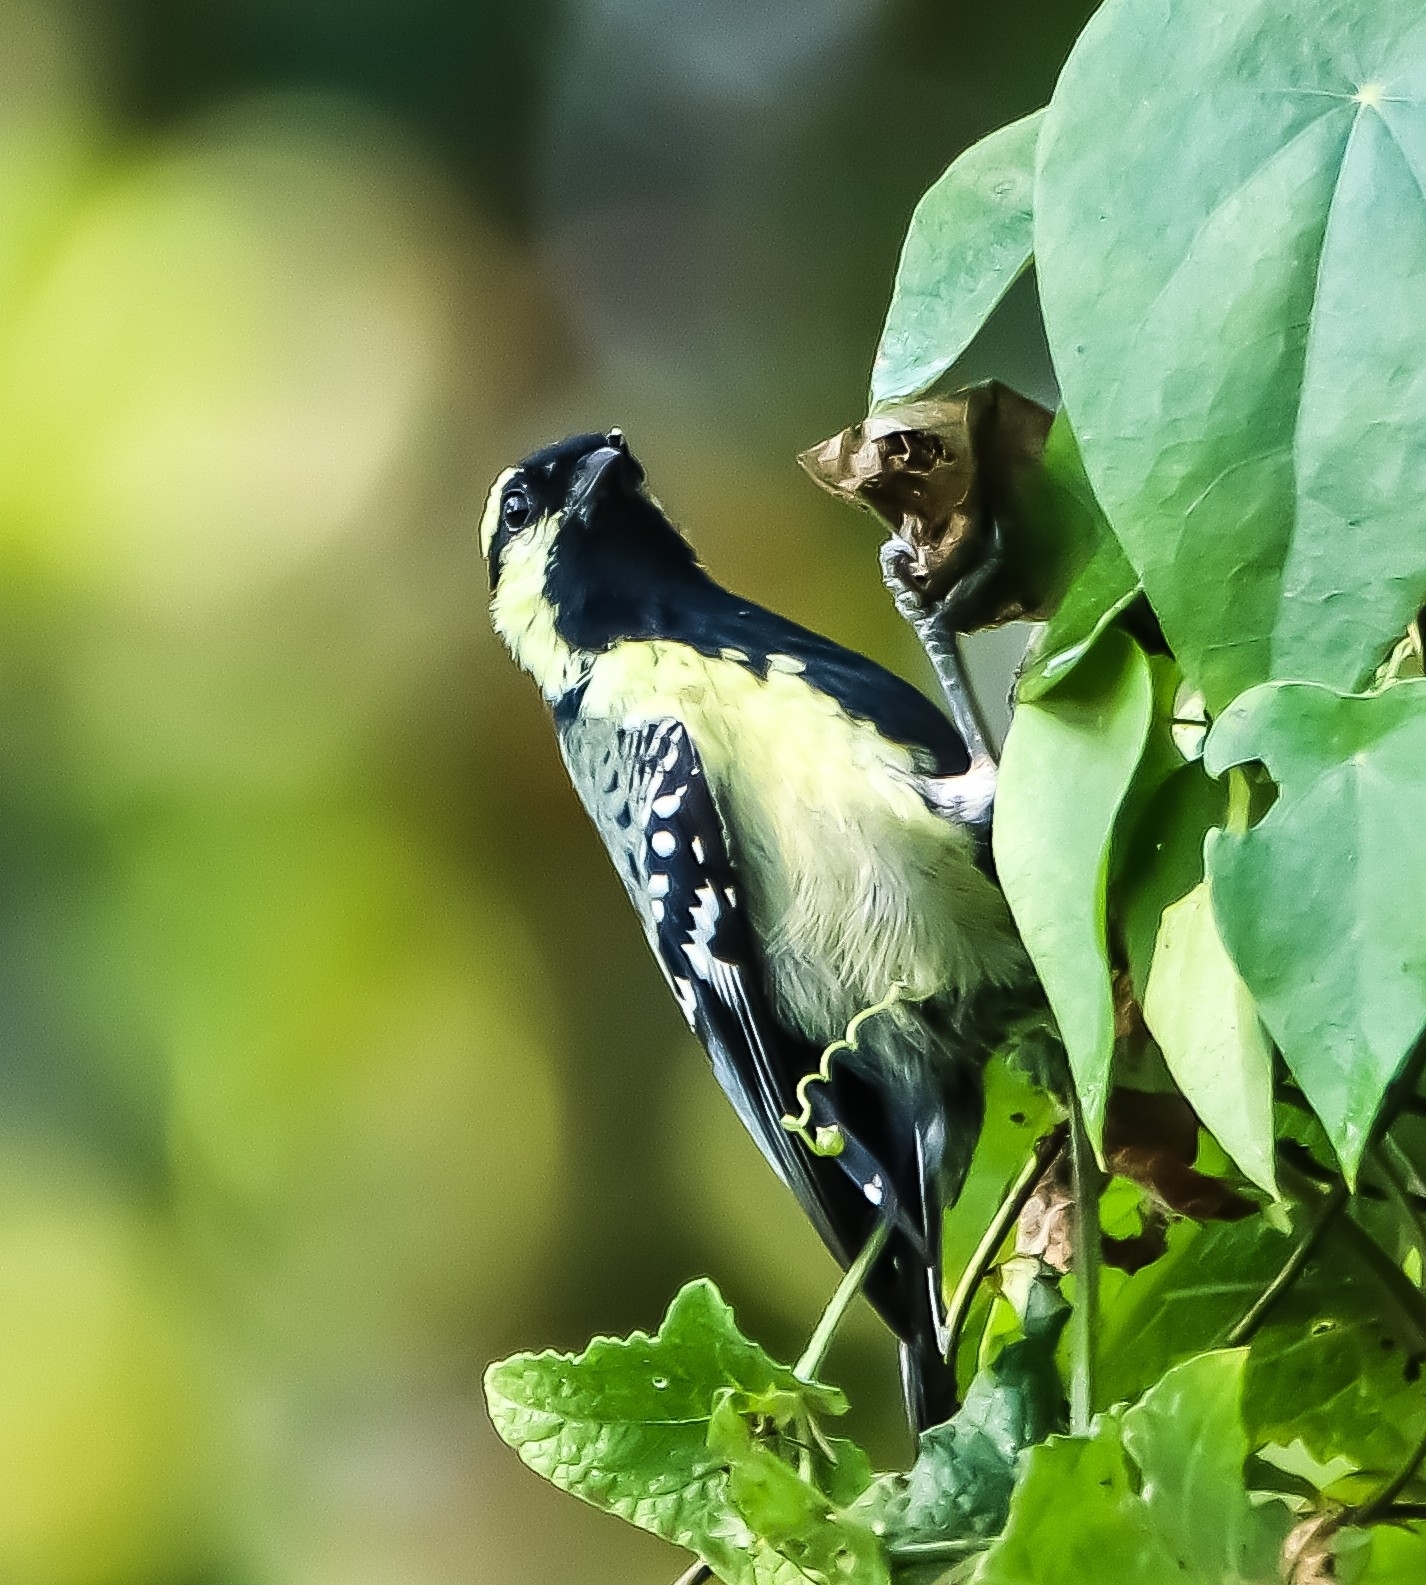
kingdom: Animalia
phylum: Chordata
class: Aves
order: Passeriformes
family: Paridae
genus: Parus
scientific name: Parus aplonotus
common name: Indian black-lored tit
